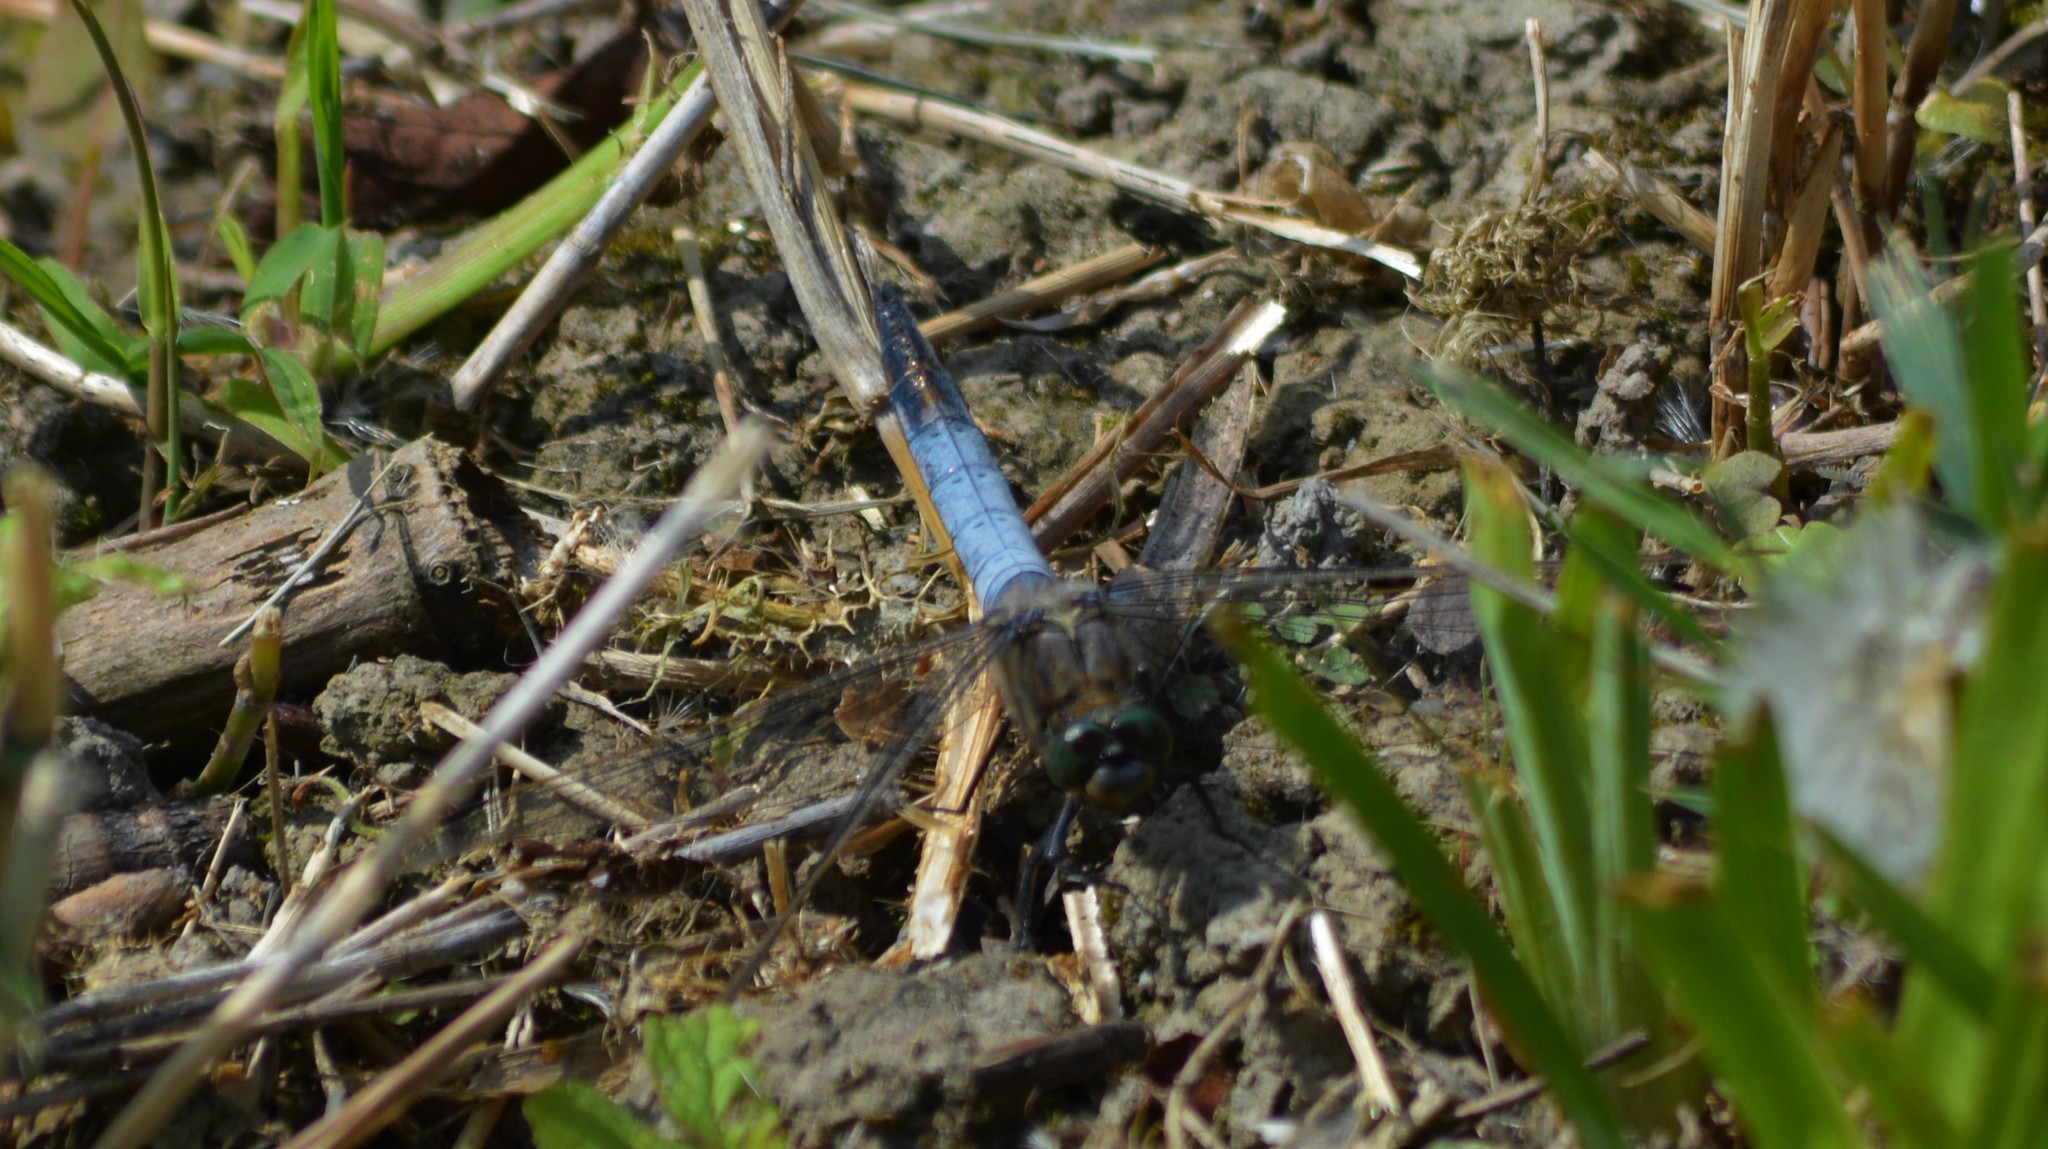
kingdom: Animalia
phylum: Arthropoda
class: Insecta
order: Odonata
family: Libellulidae
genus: Orthetrum
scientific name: Orthetrum cancellatum
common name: Black-tailed skimmer
